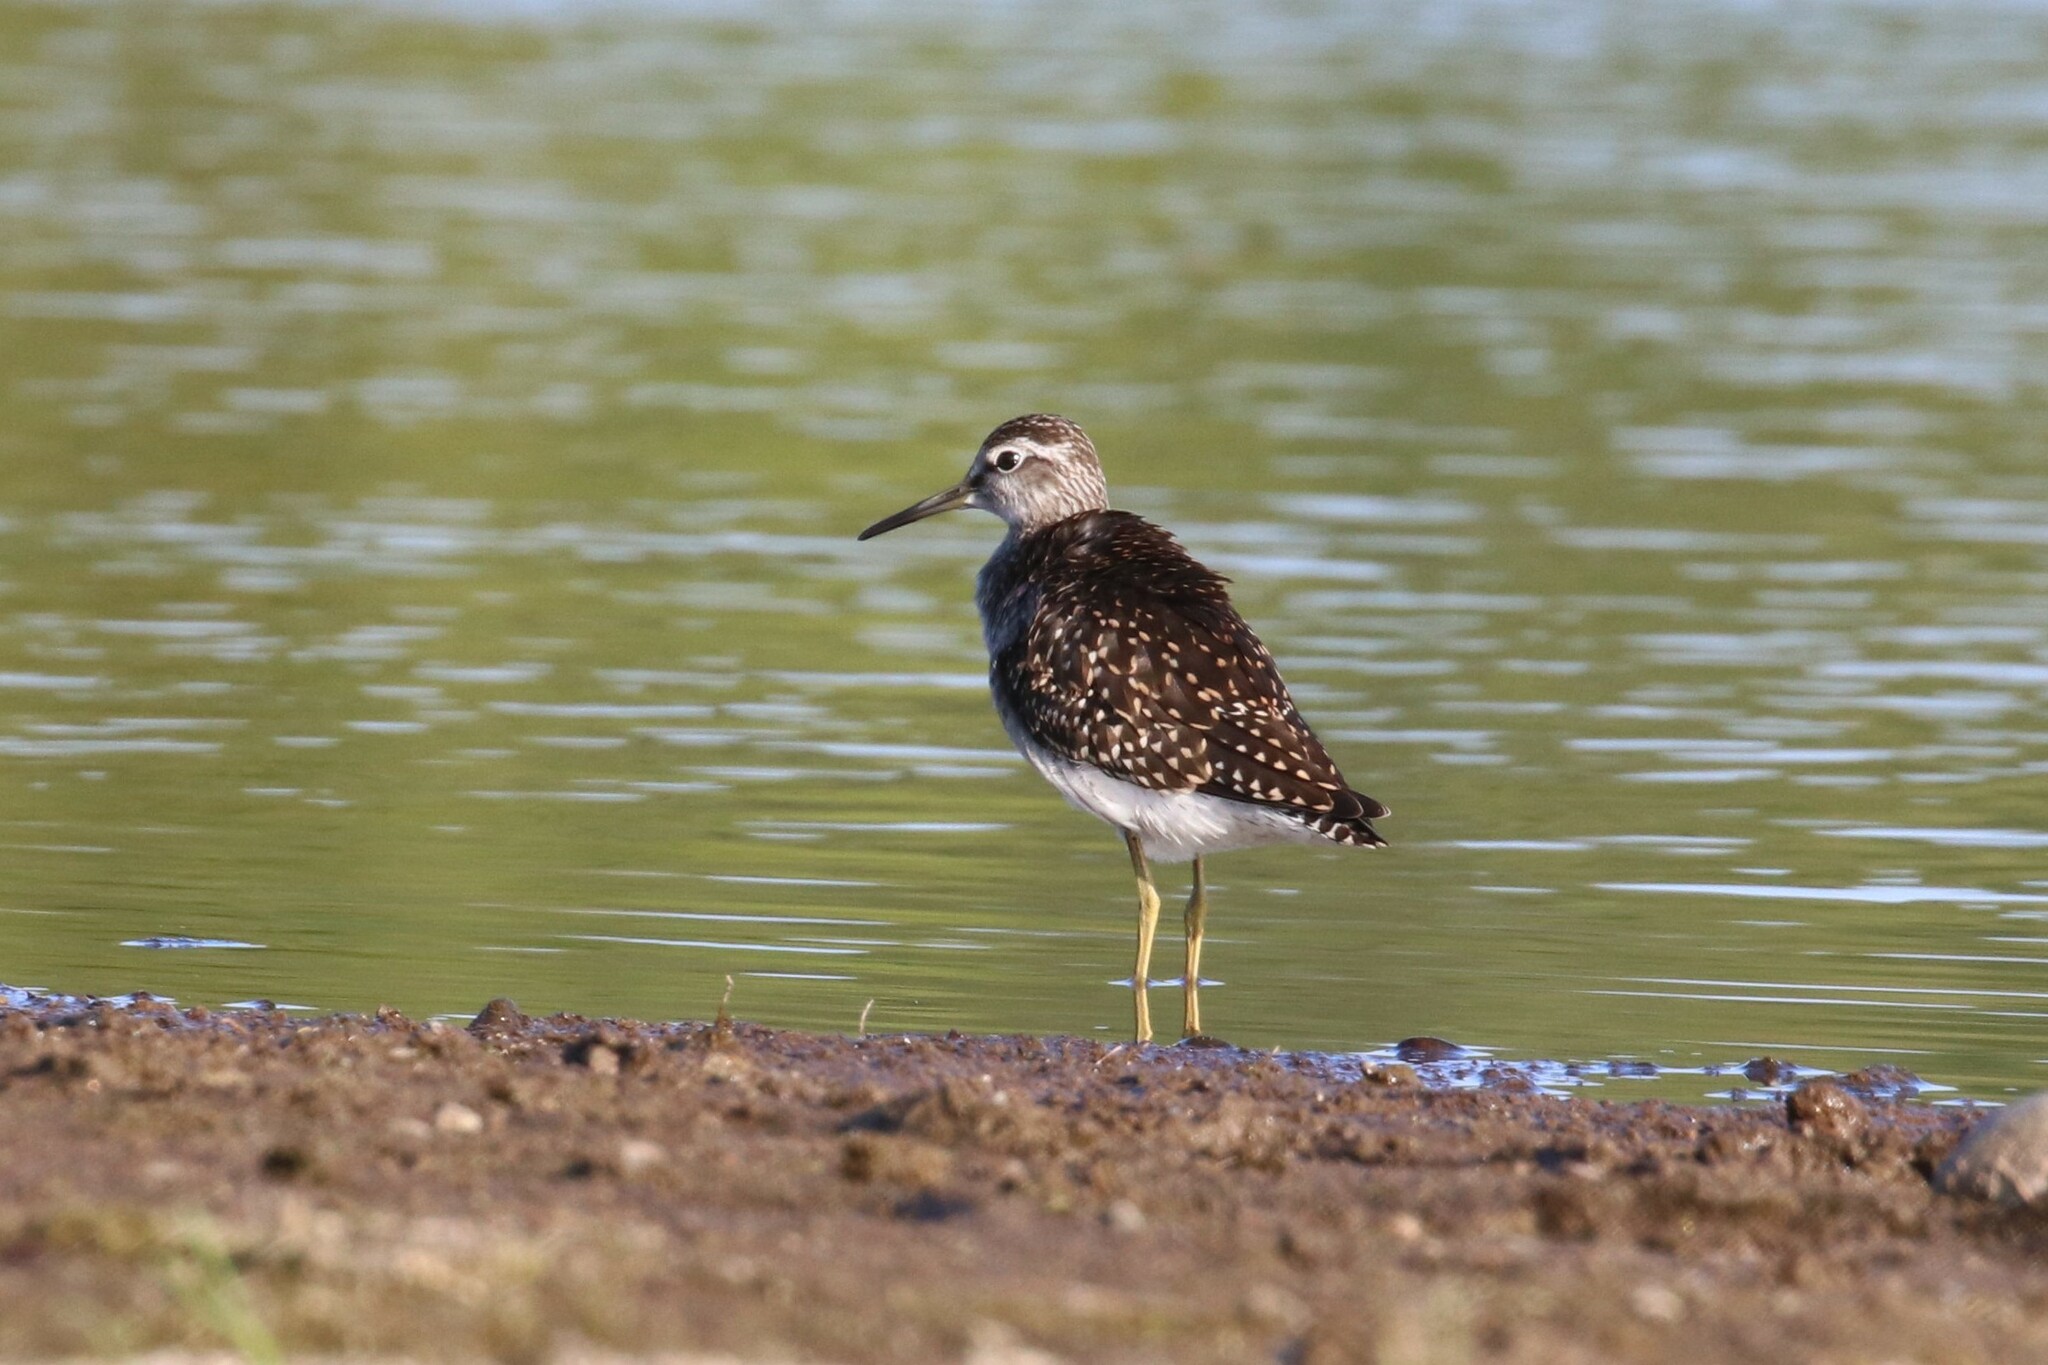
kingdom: Animalia
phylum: Chordata
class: Aves
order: Charadriiformes
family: Scolopacidae
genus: Tringa
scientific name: Tringa glareola
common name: Wood sandpiper
